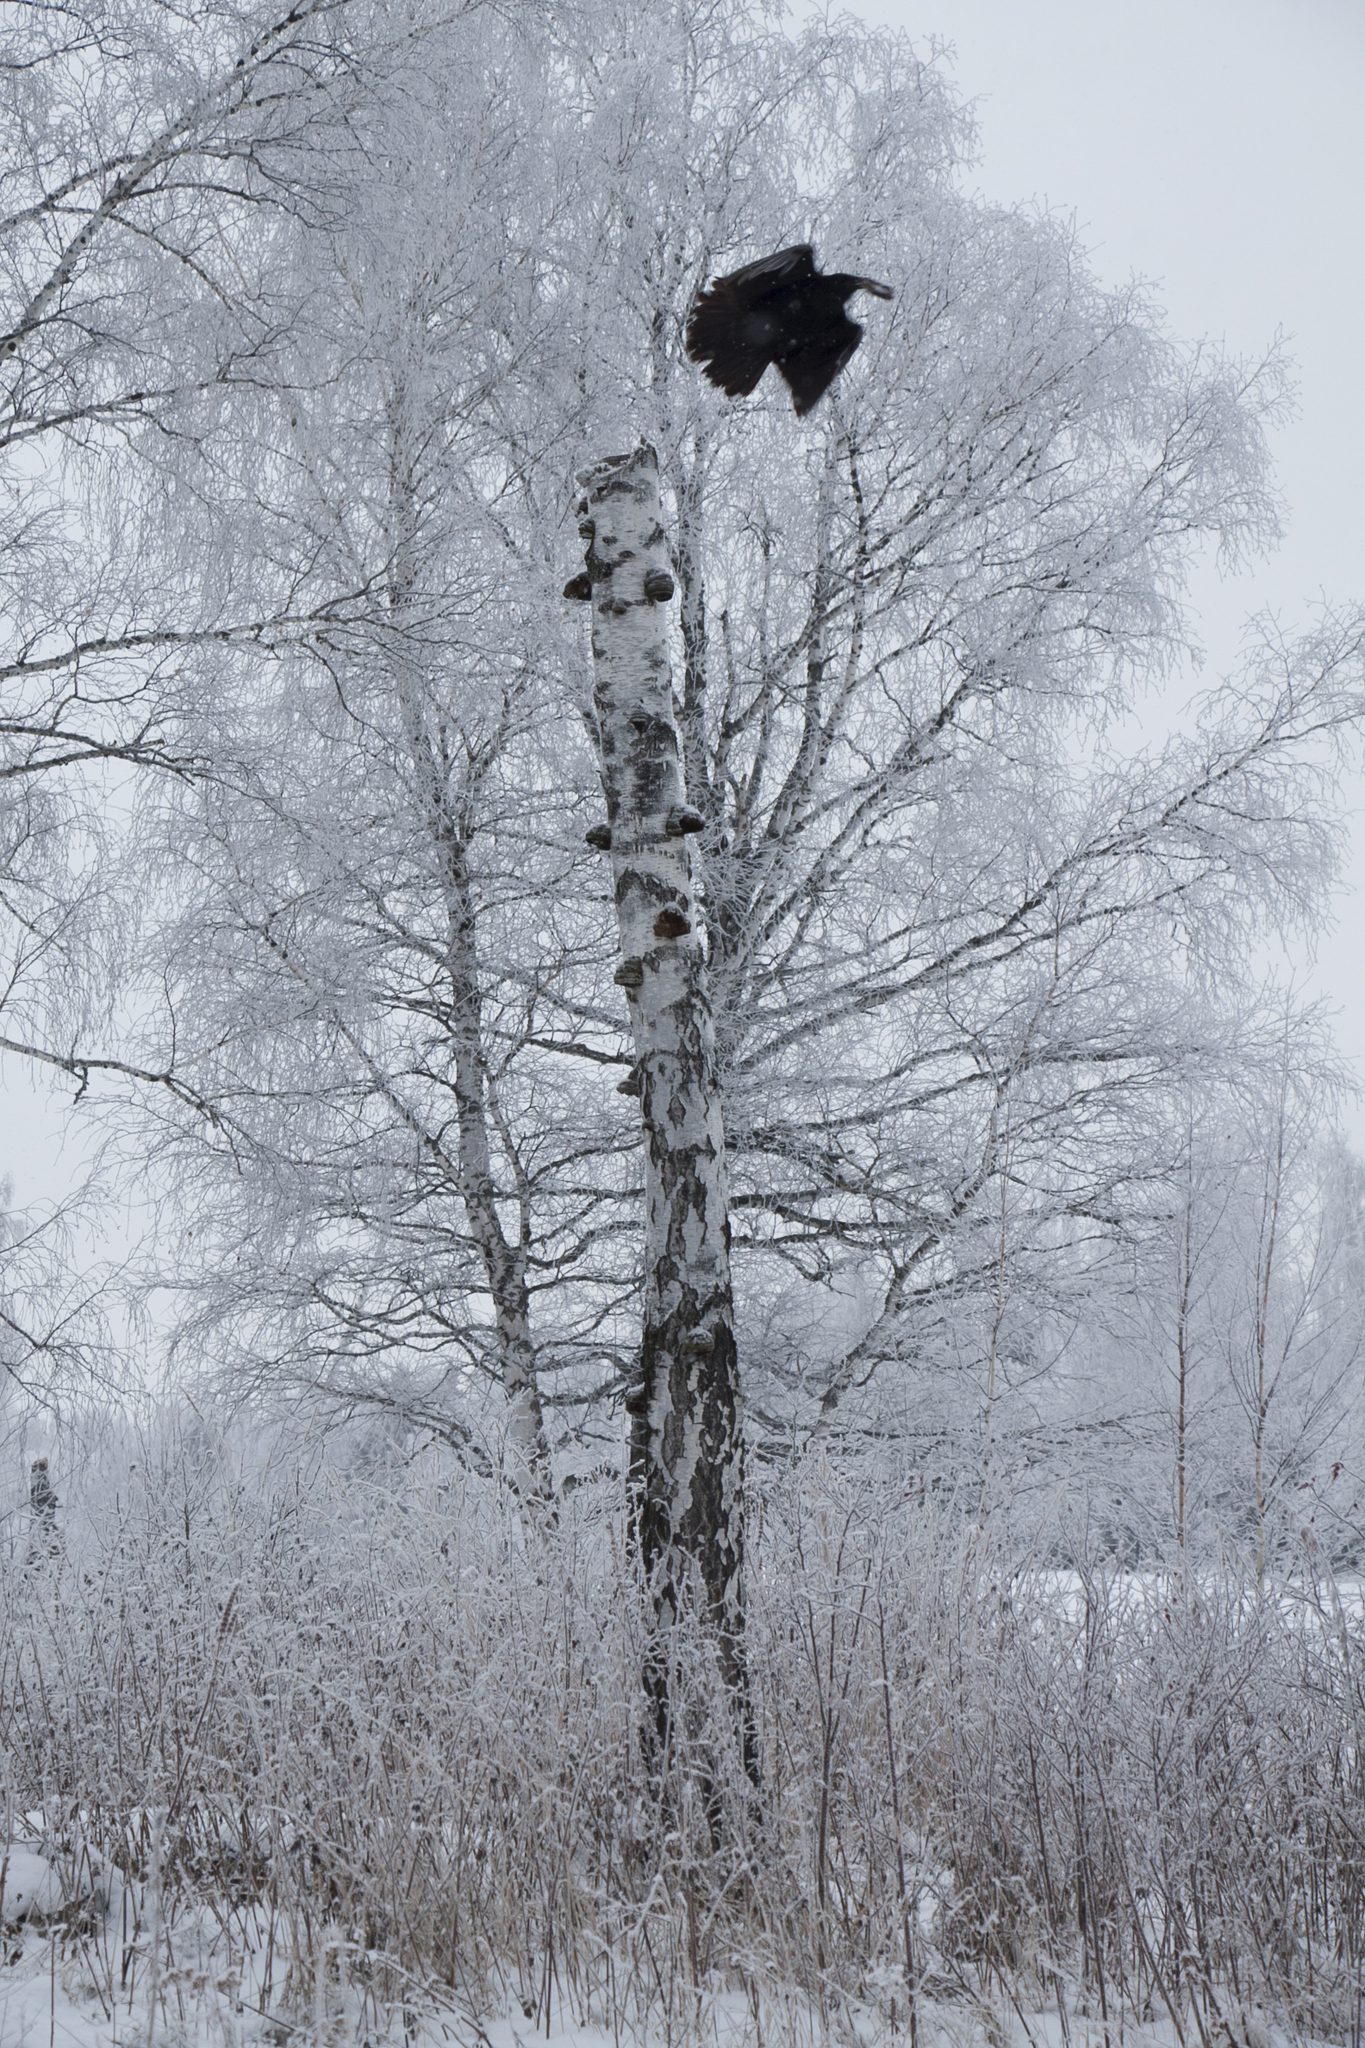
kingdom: Animalia
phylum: Chordata
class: Aves
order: Passeriformes
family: Corvidae
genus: Corvus
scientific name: Corvus corax
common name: Common raven
